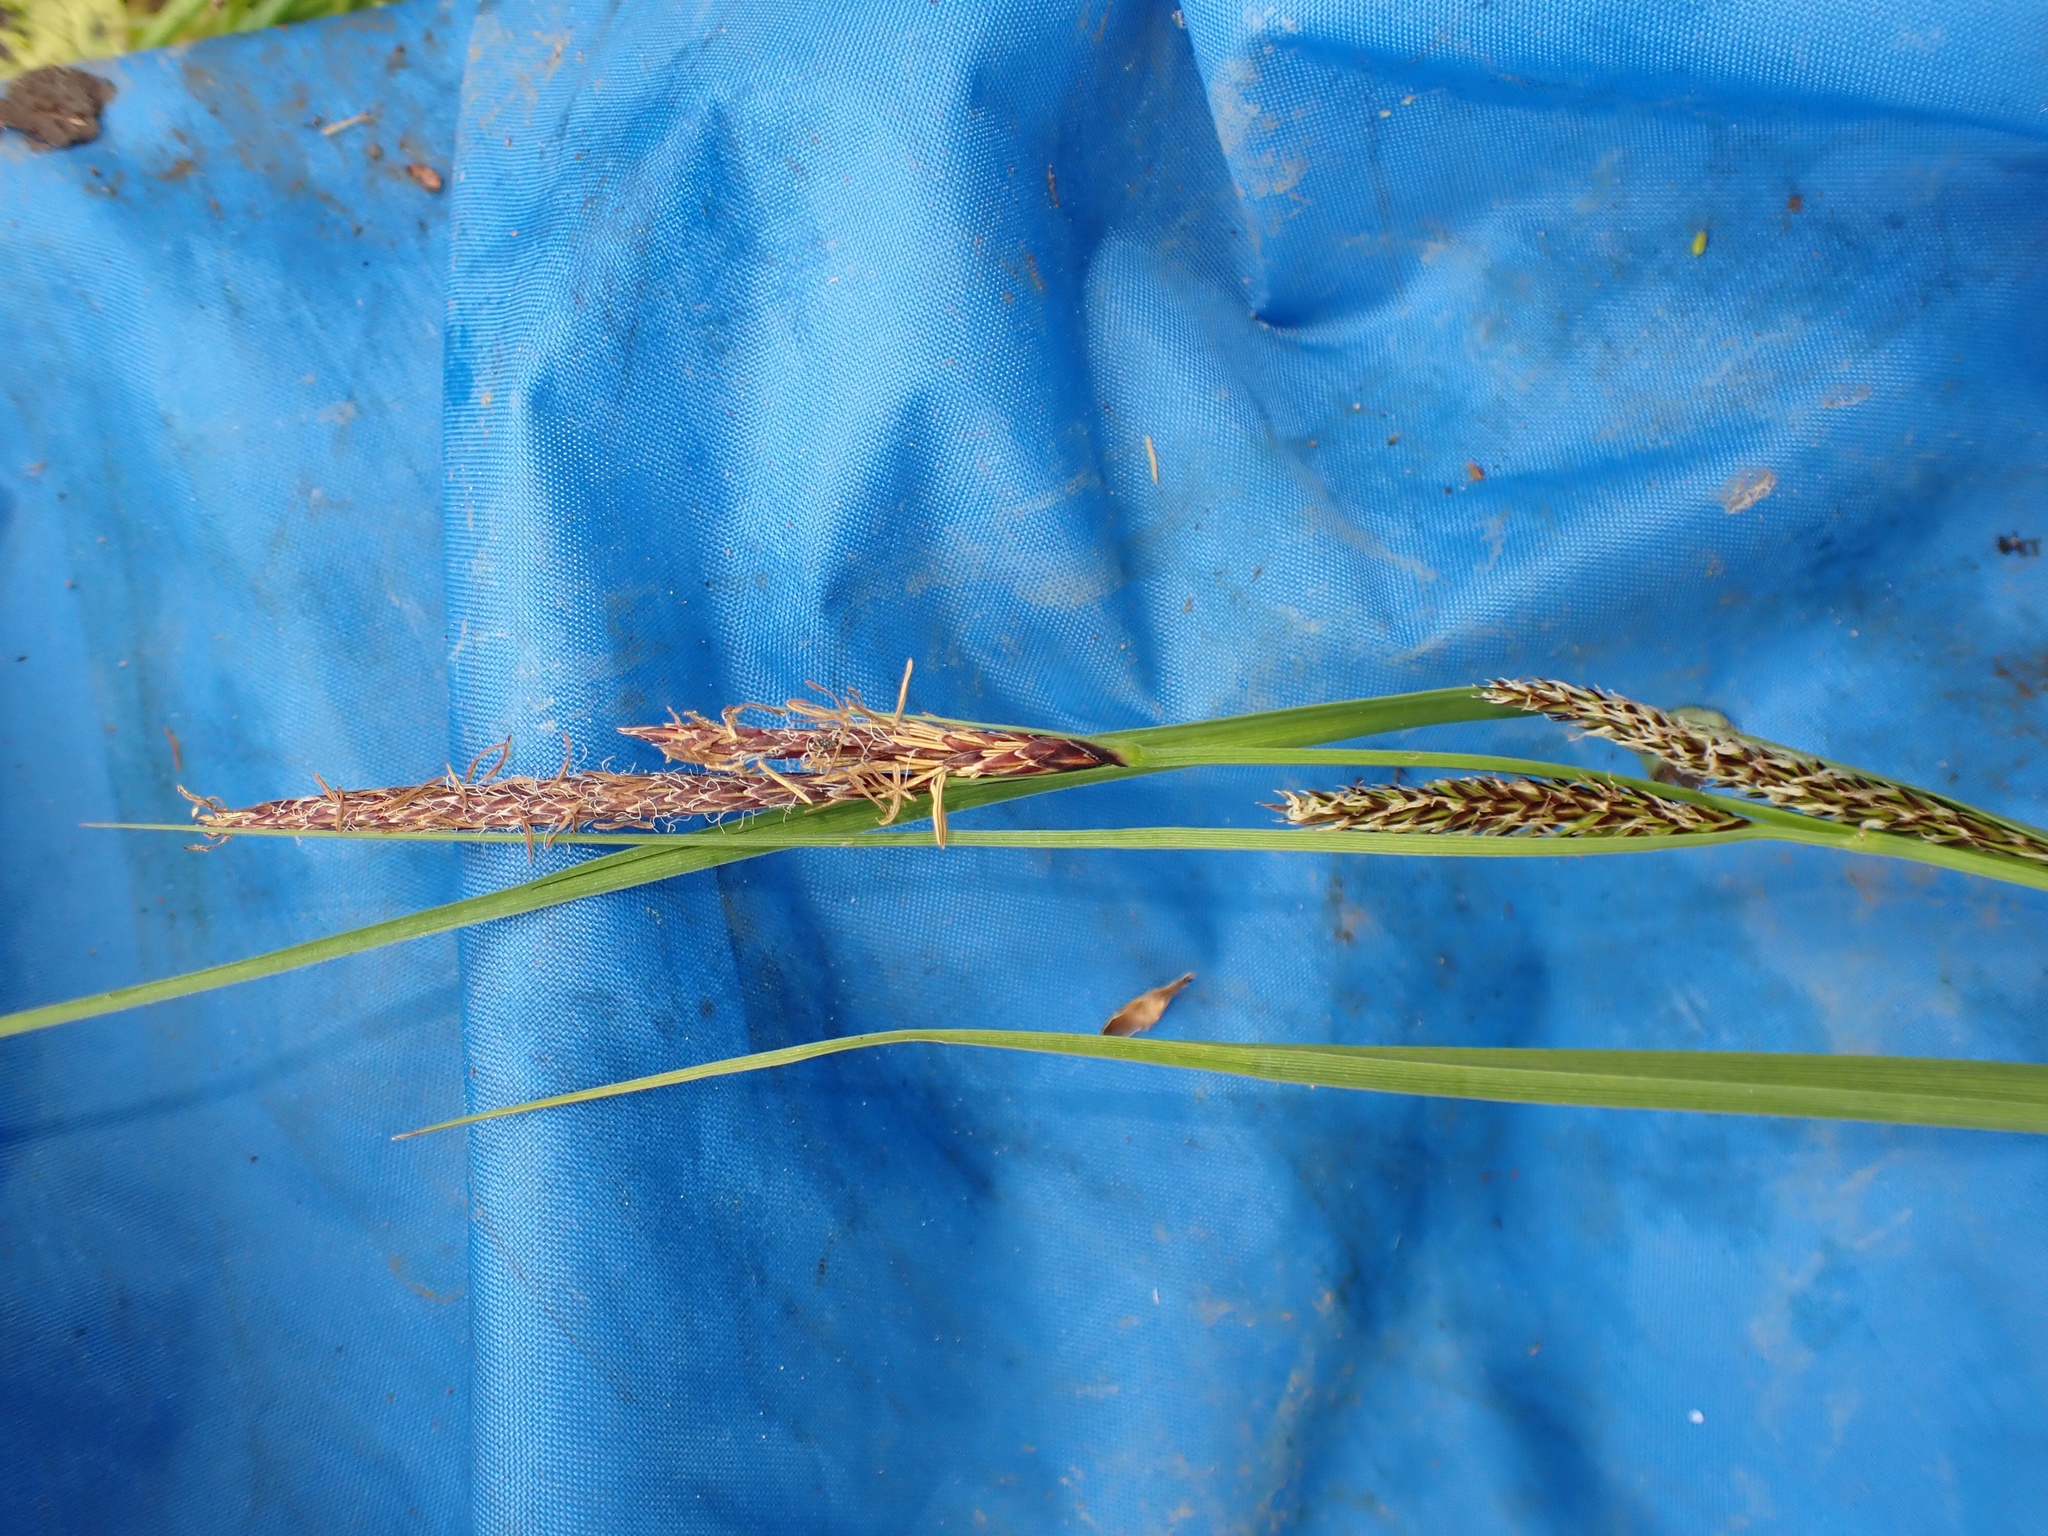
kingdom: Plantae
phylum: Tracheophyta
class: Liliopsida
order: Poales
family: Cyperaceae
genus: Carex
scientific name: Carex rostrata
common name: Bottle sedge
